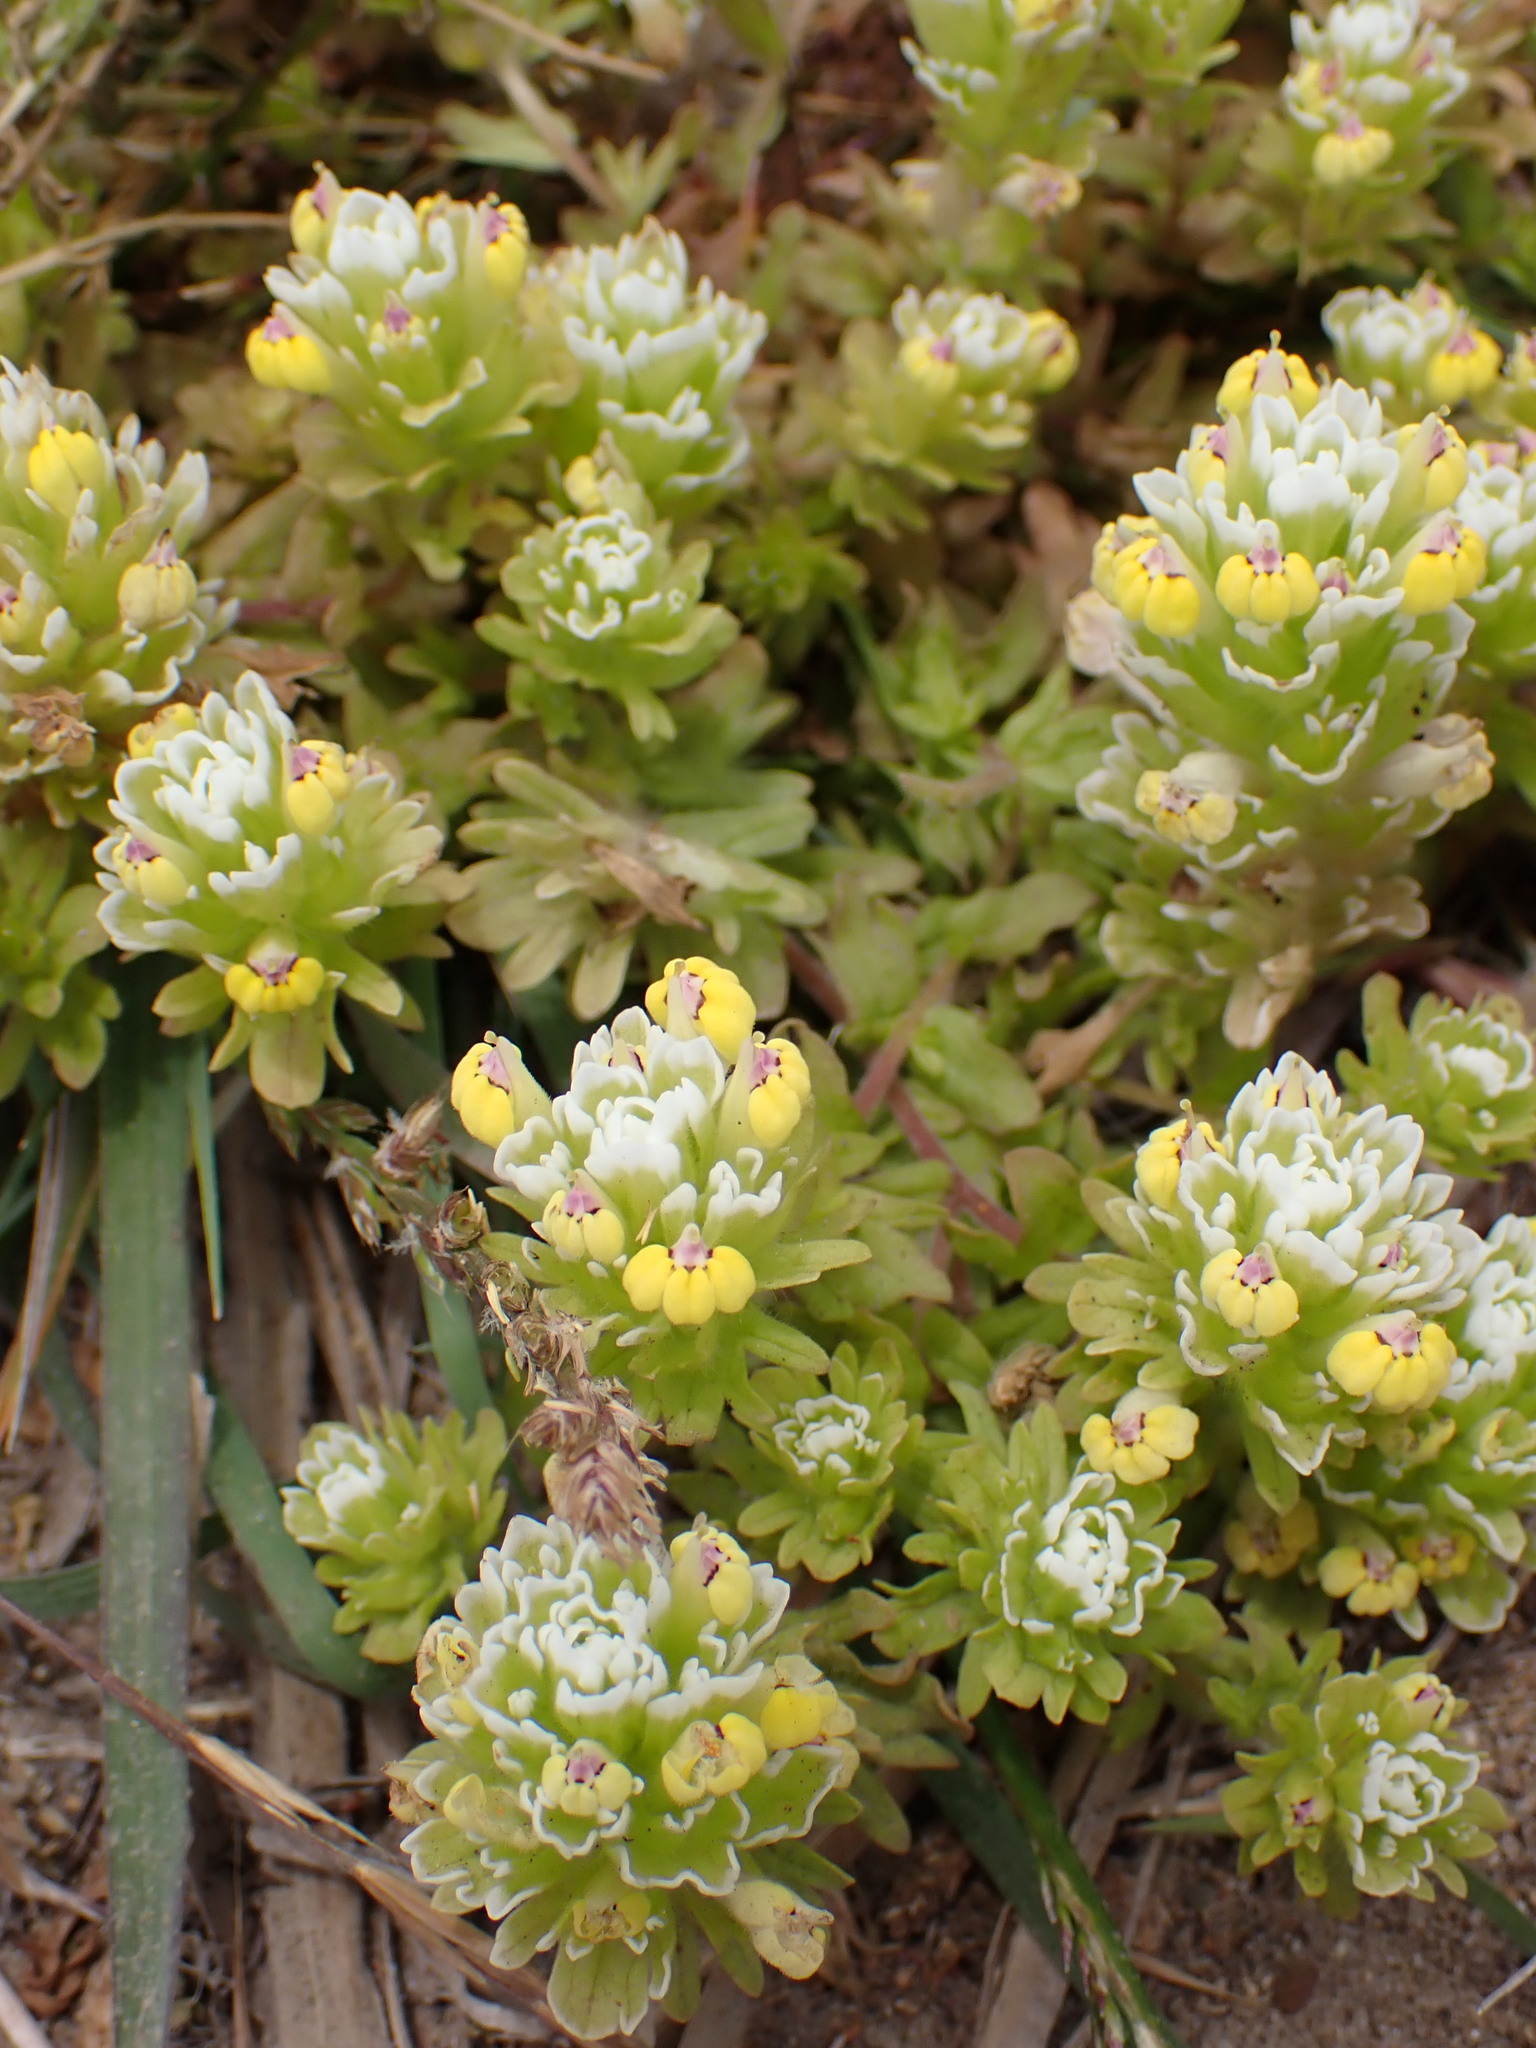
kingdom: Plantae
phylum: Tracheophyta
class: Magnoliopsida
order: Lamiales
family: Orobanchaceae
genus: Castilleja
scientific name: Castilleja ambigua
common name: Johnny-nip
